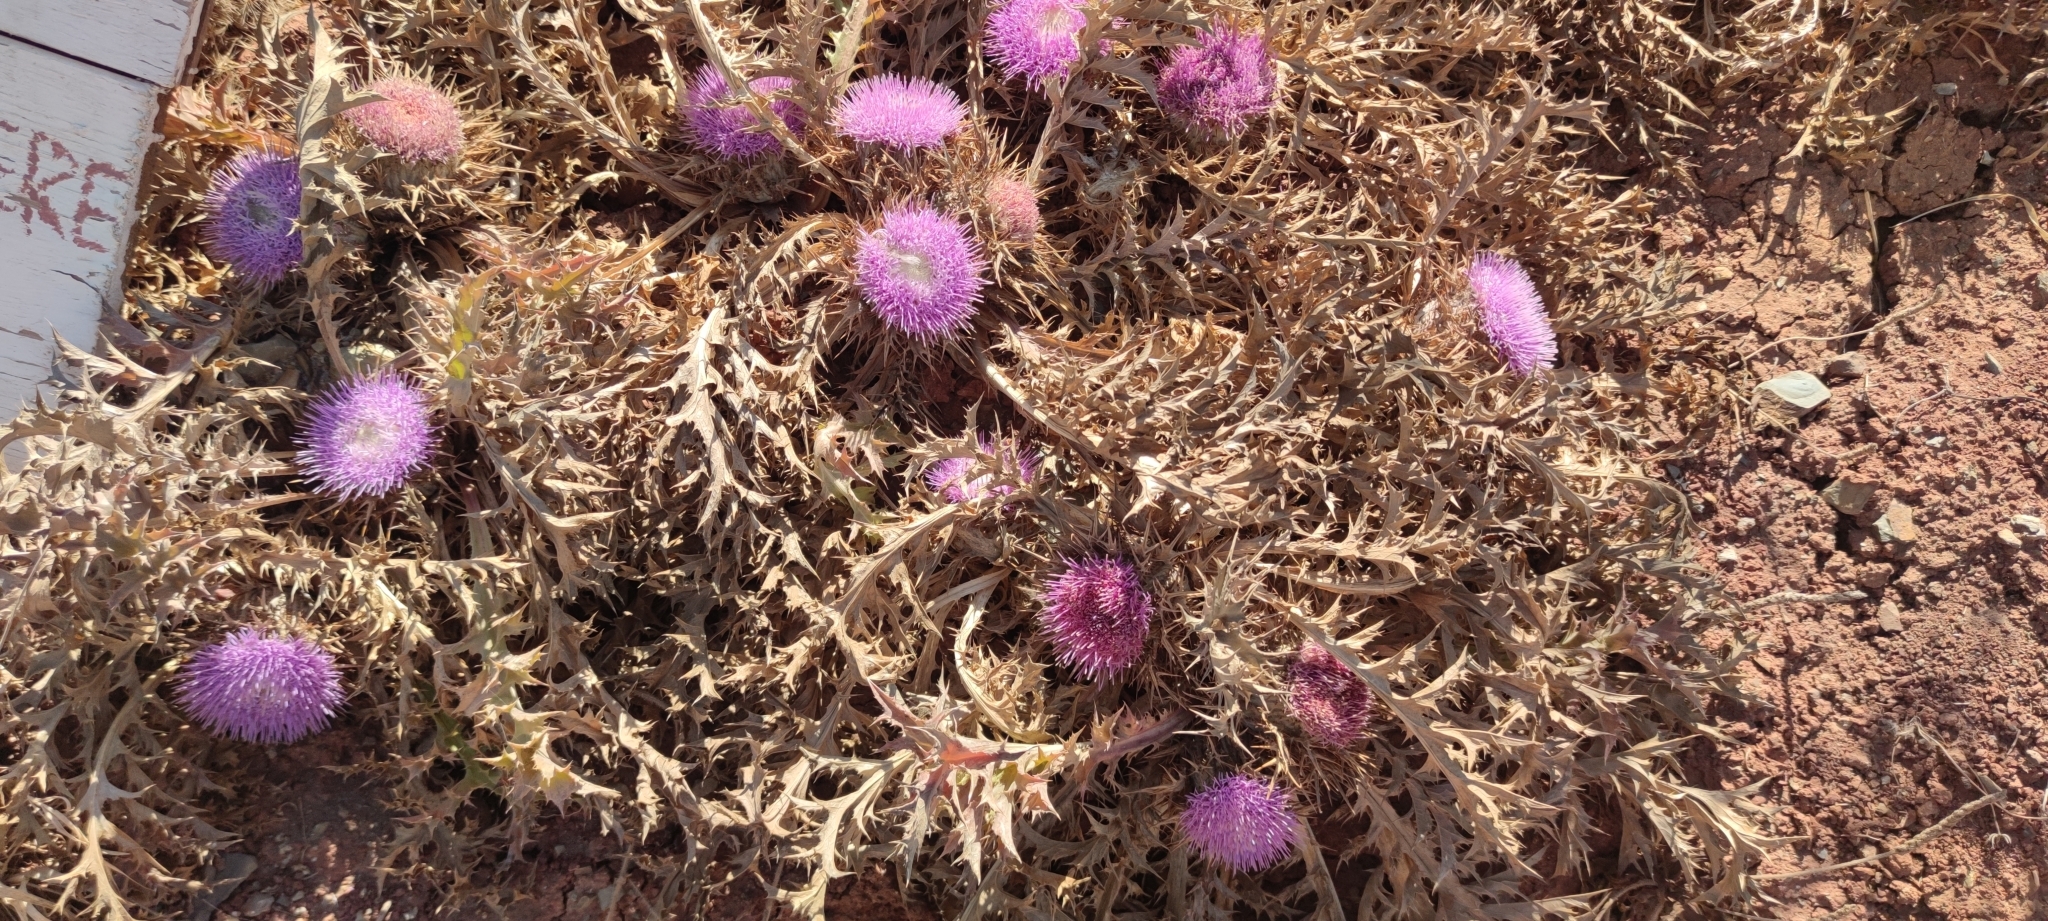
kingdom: Plantae
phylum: Tracheophyta
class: Magnoliopsida
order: Asterales
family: Asteraceae
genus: Chamaeleon
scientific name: Chamaeleon gummifer
